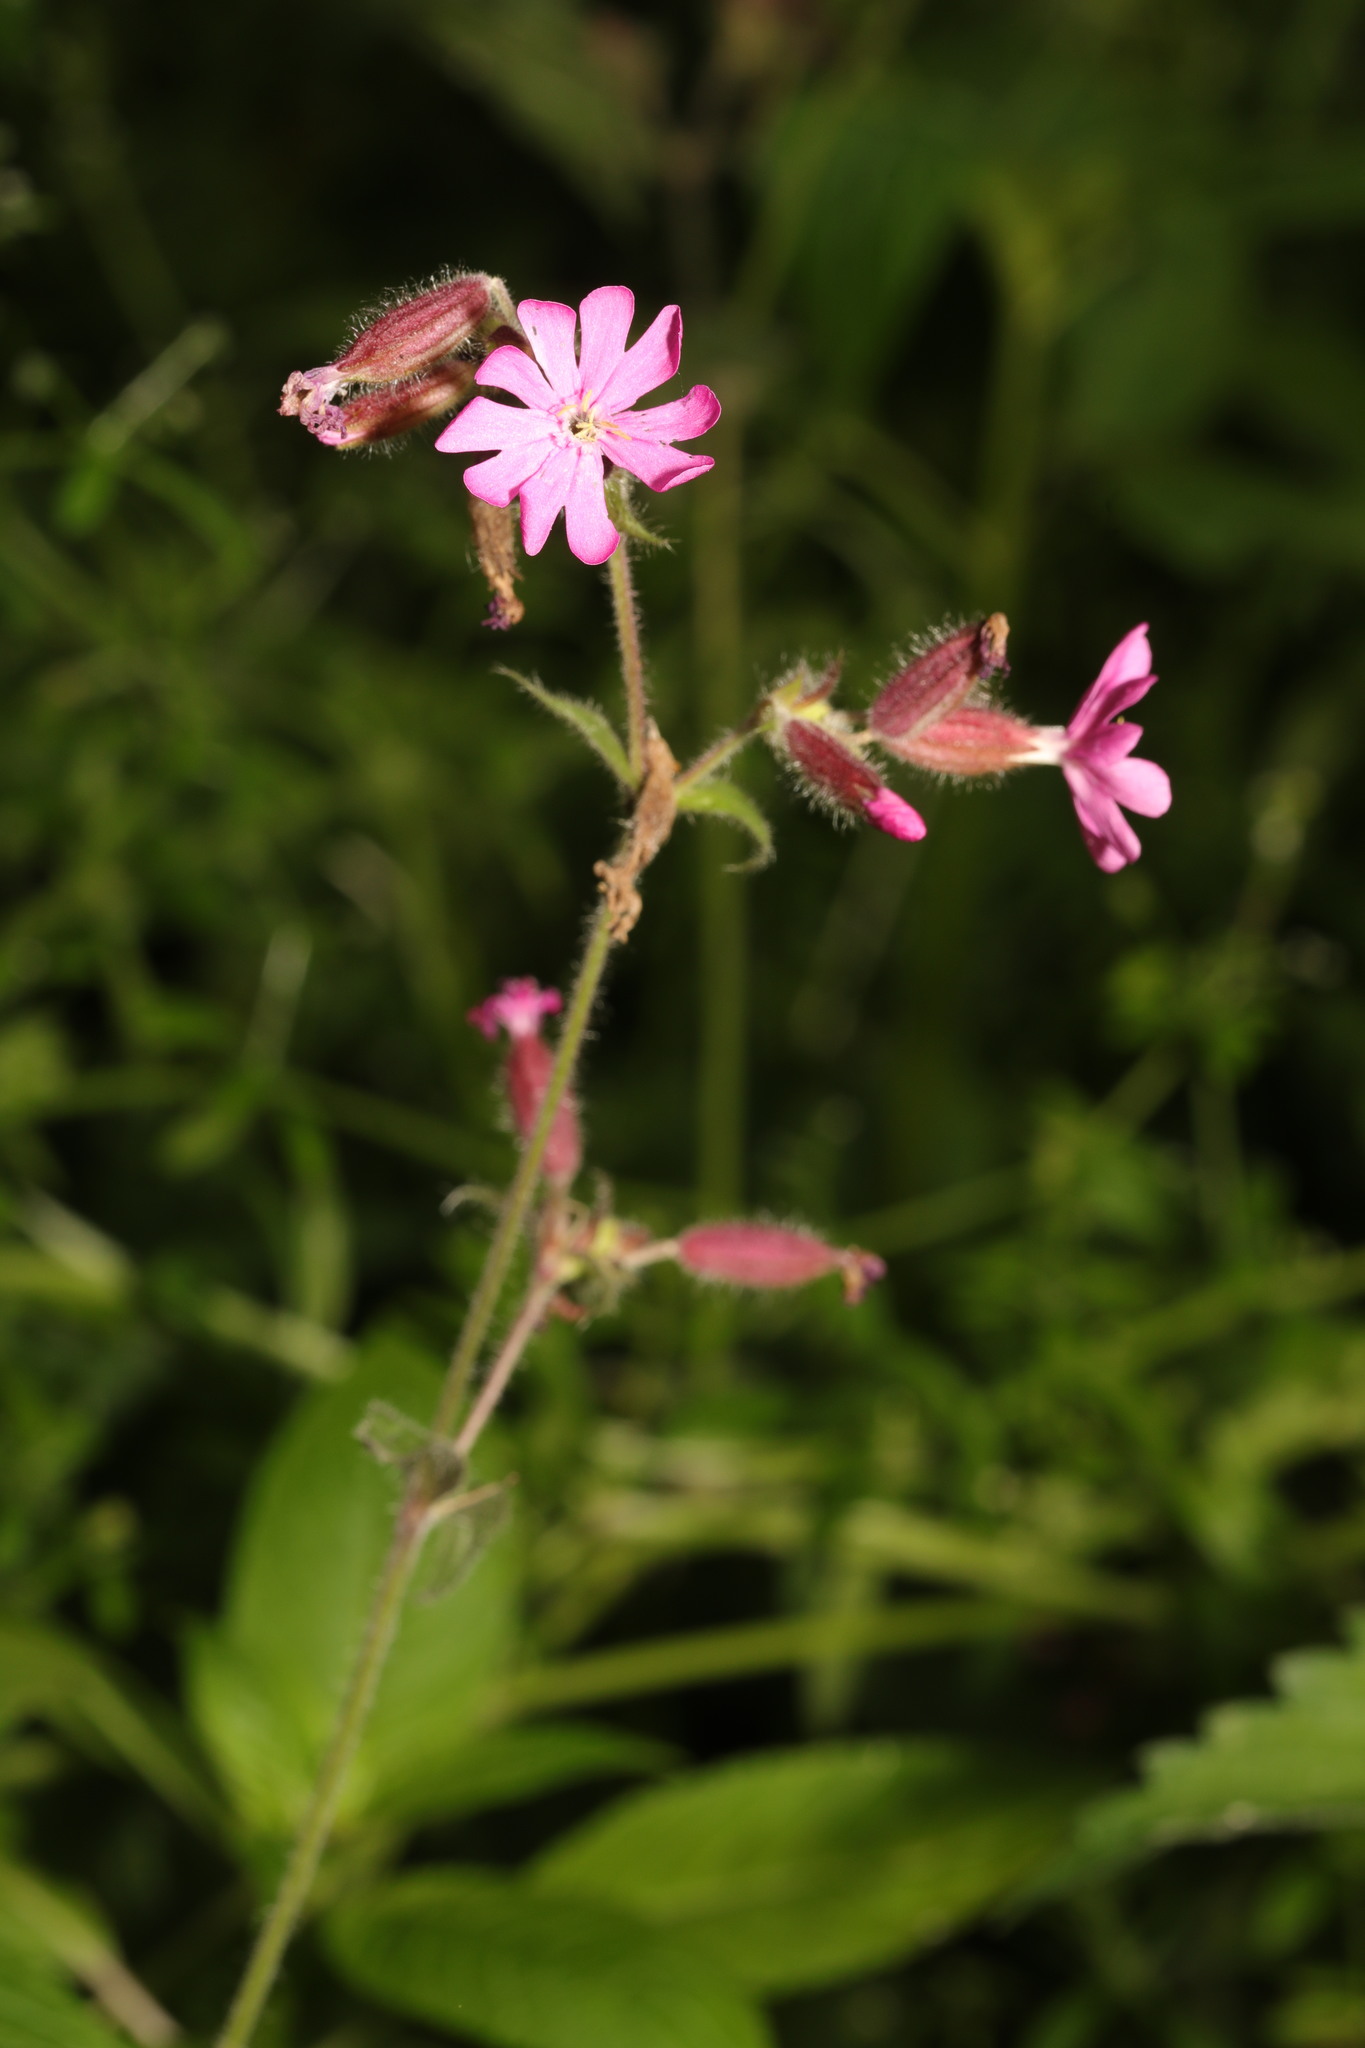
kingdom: Plantae
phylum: Tracheophyta
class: Magnoliopsida
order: Caryophyllales
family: Caryophyllaceae
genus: Silene
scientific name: Silene dioica
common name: Red campion
